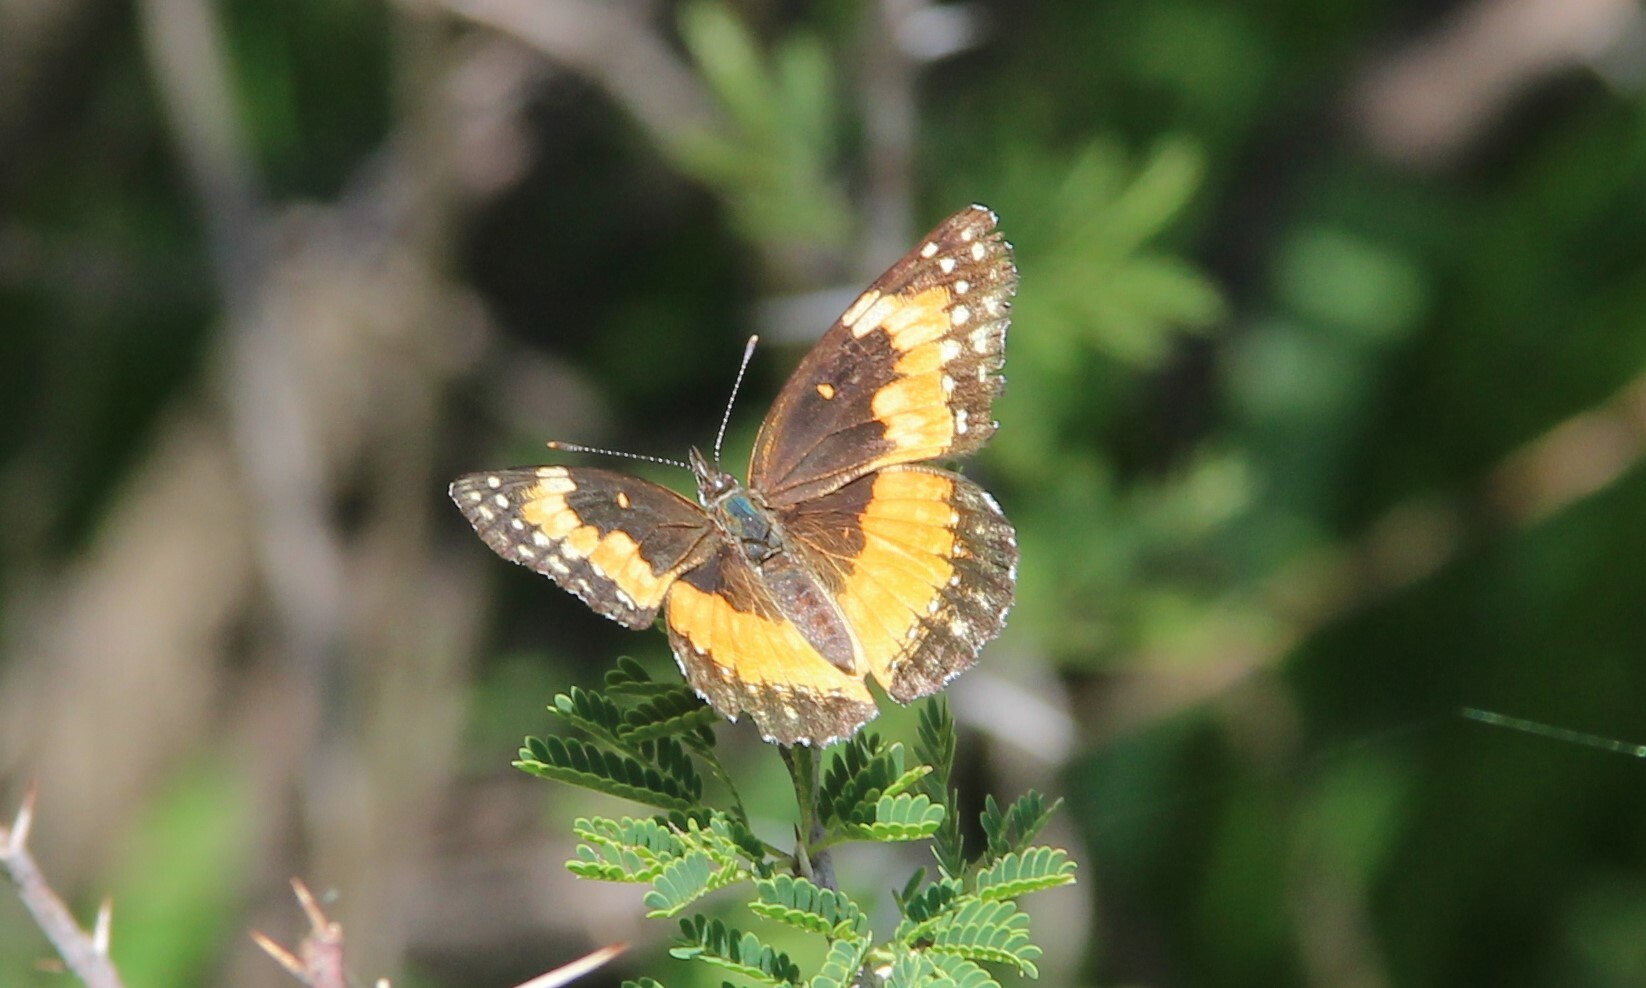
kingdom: Animalia
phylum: Arthropoda
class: Insecta
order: Lepidoptera
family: Nymphalidae
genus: Chlosyne
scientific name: Chlosyne lacinia
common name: Bordered patch
